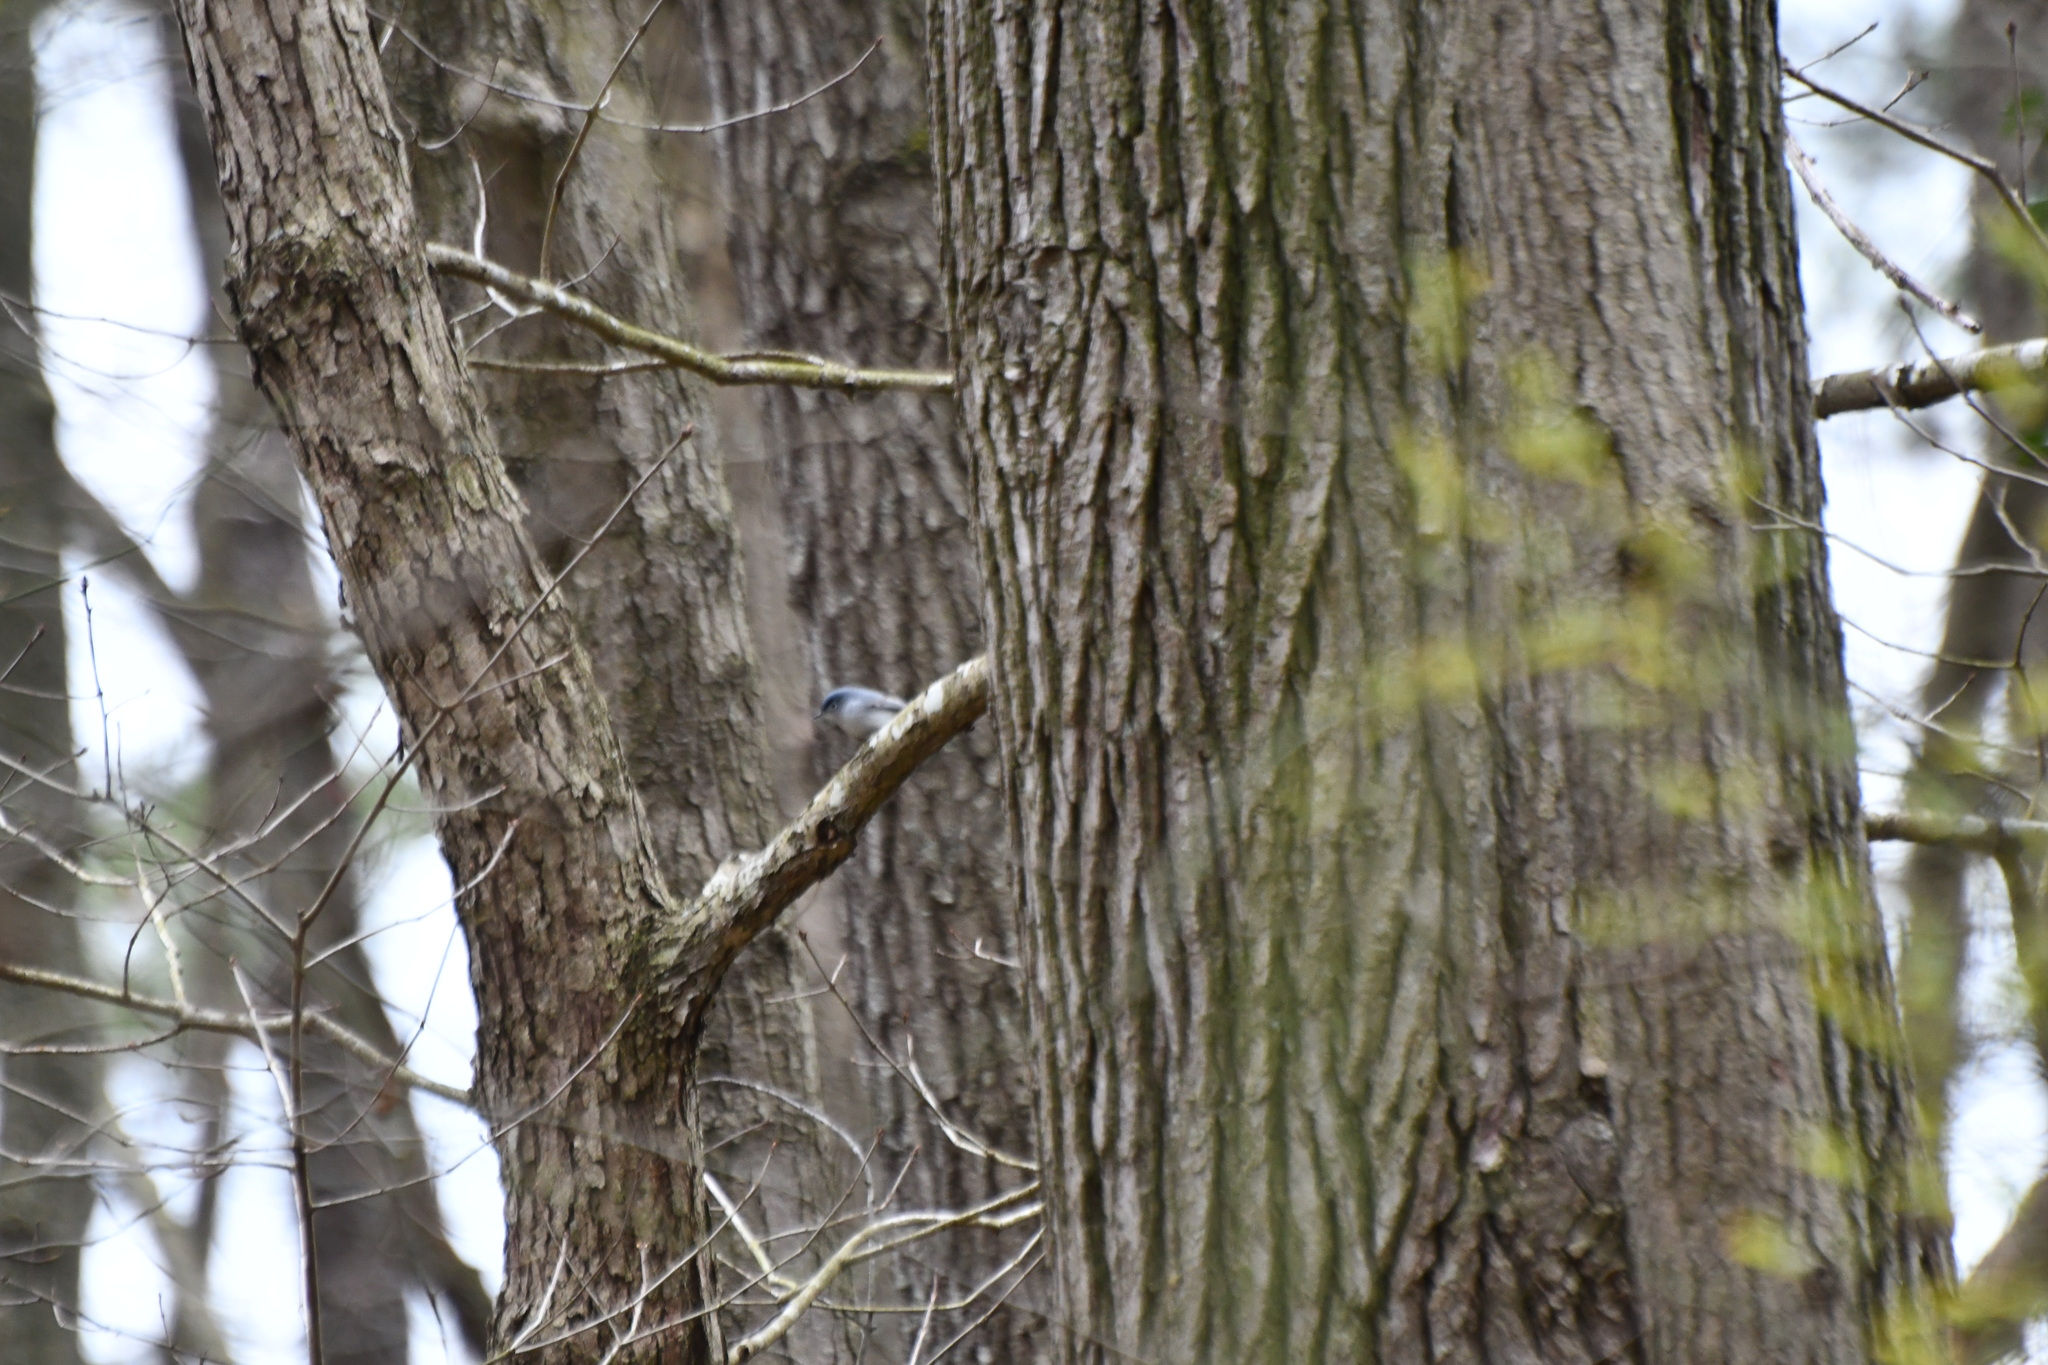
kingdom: Animalia
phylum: Chordata
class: Aves
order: Passeriformes
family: Polioptilidae
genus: Polioptila
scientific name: Polioptila caerulea
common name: Blue-gray gnatcatcher
